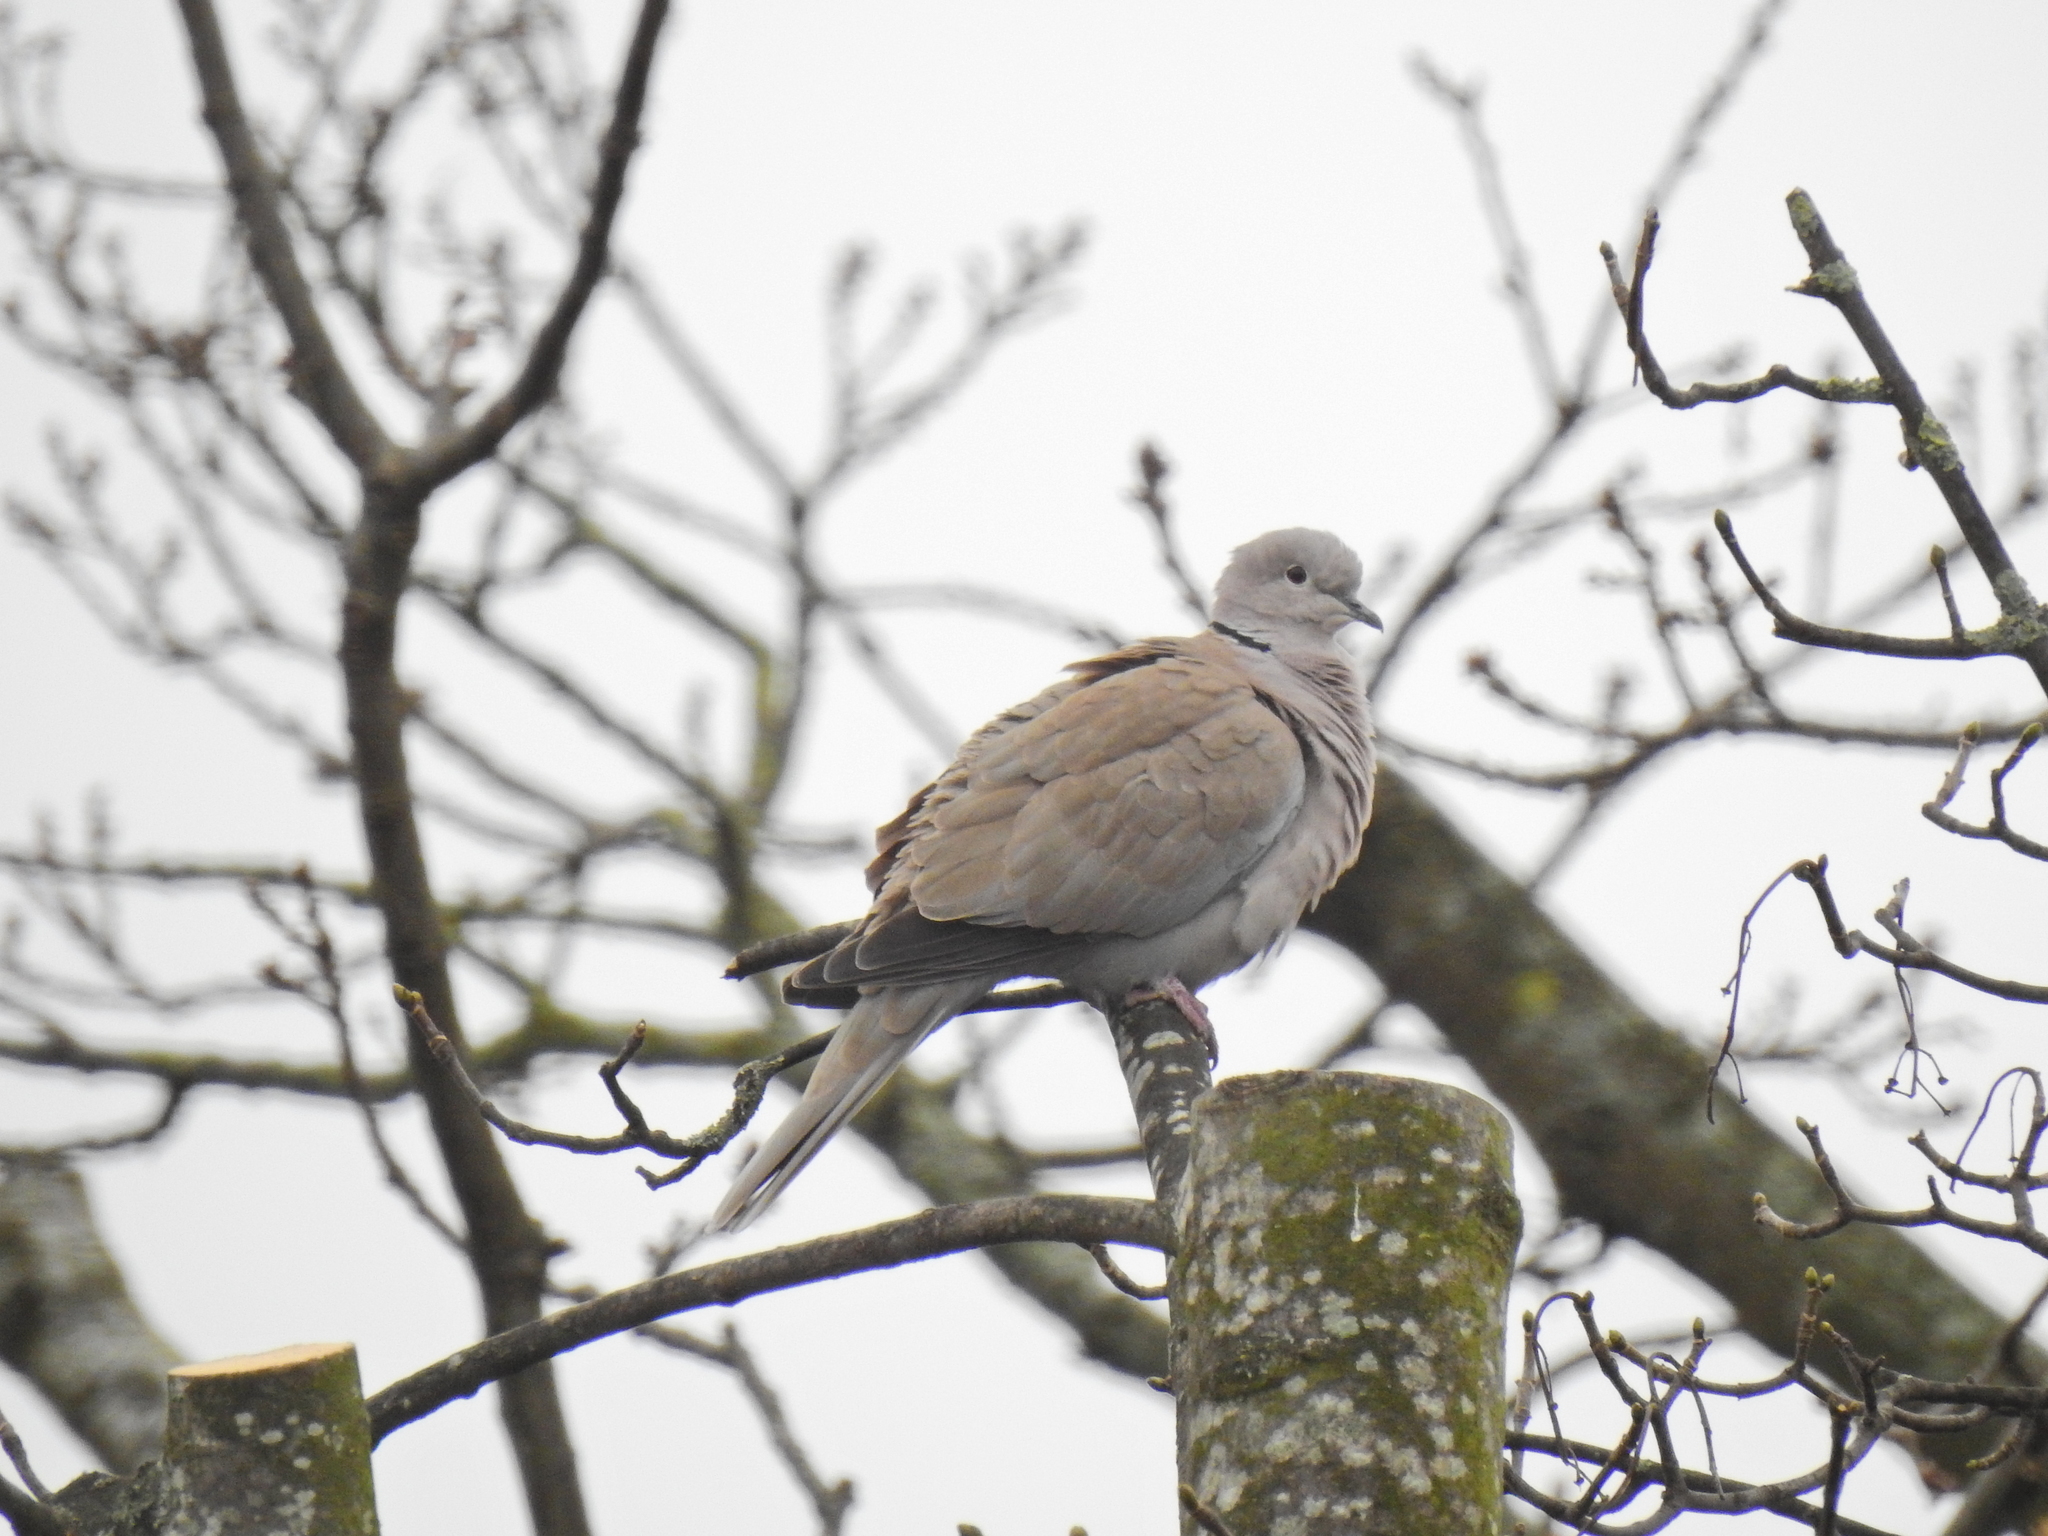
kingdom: Animalia
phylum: Chordata
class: Aves
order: Columbiformes
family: Columbidae
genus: Streptopelia
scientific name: Streptopelia decaocto
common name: Eurasian collared dove
